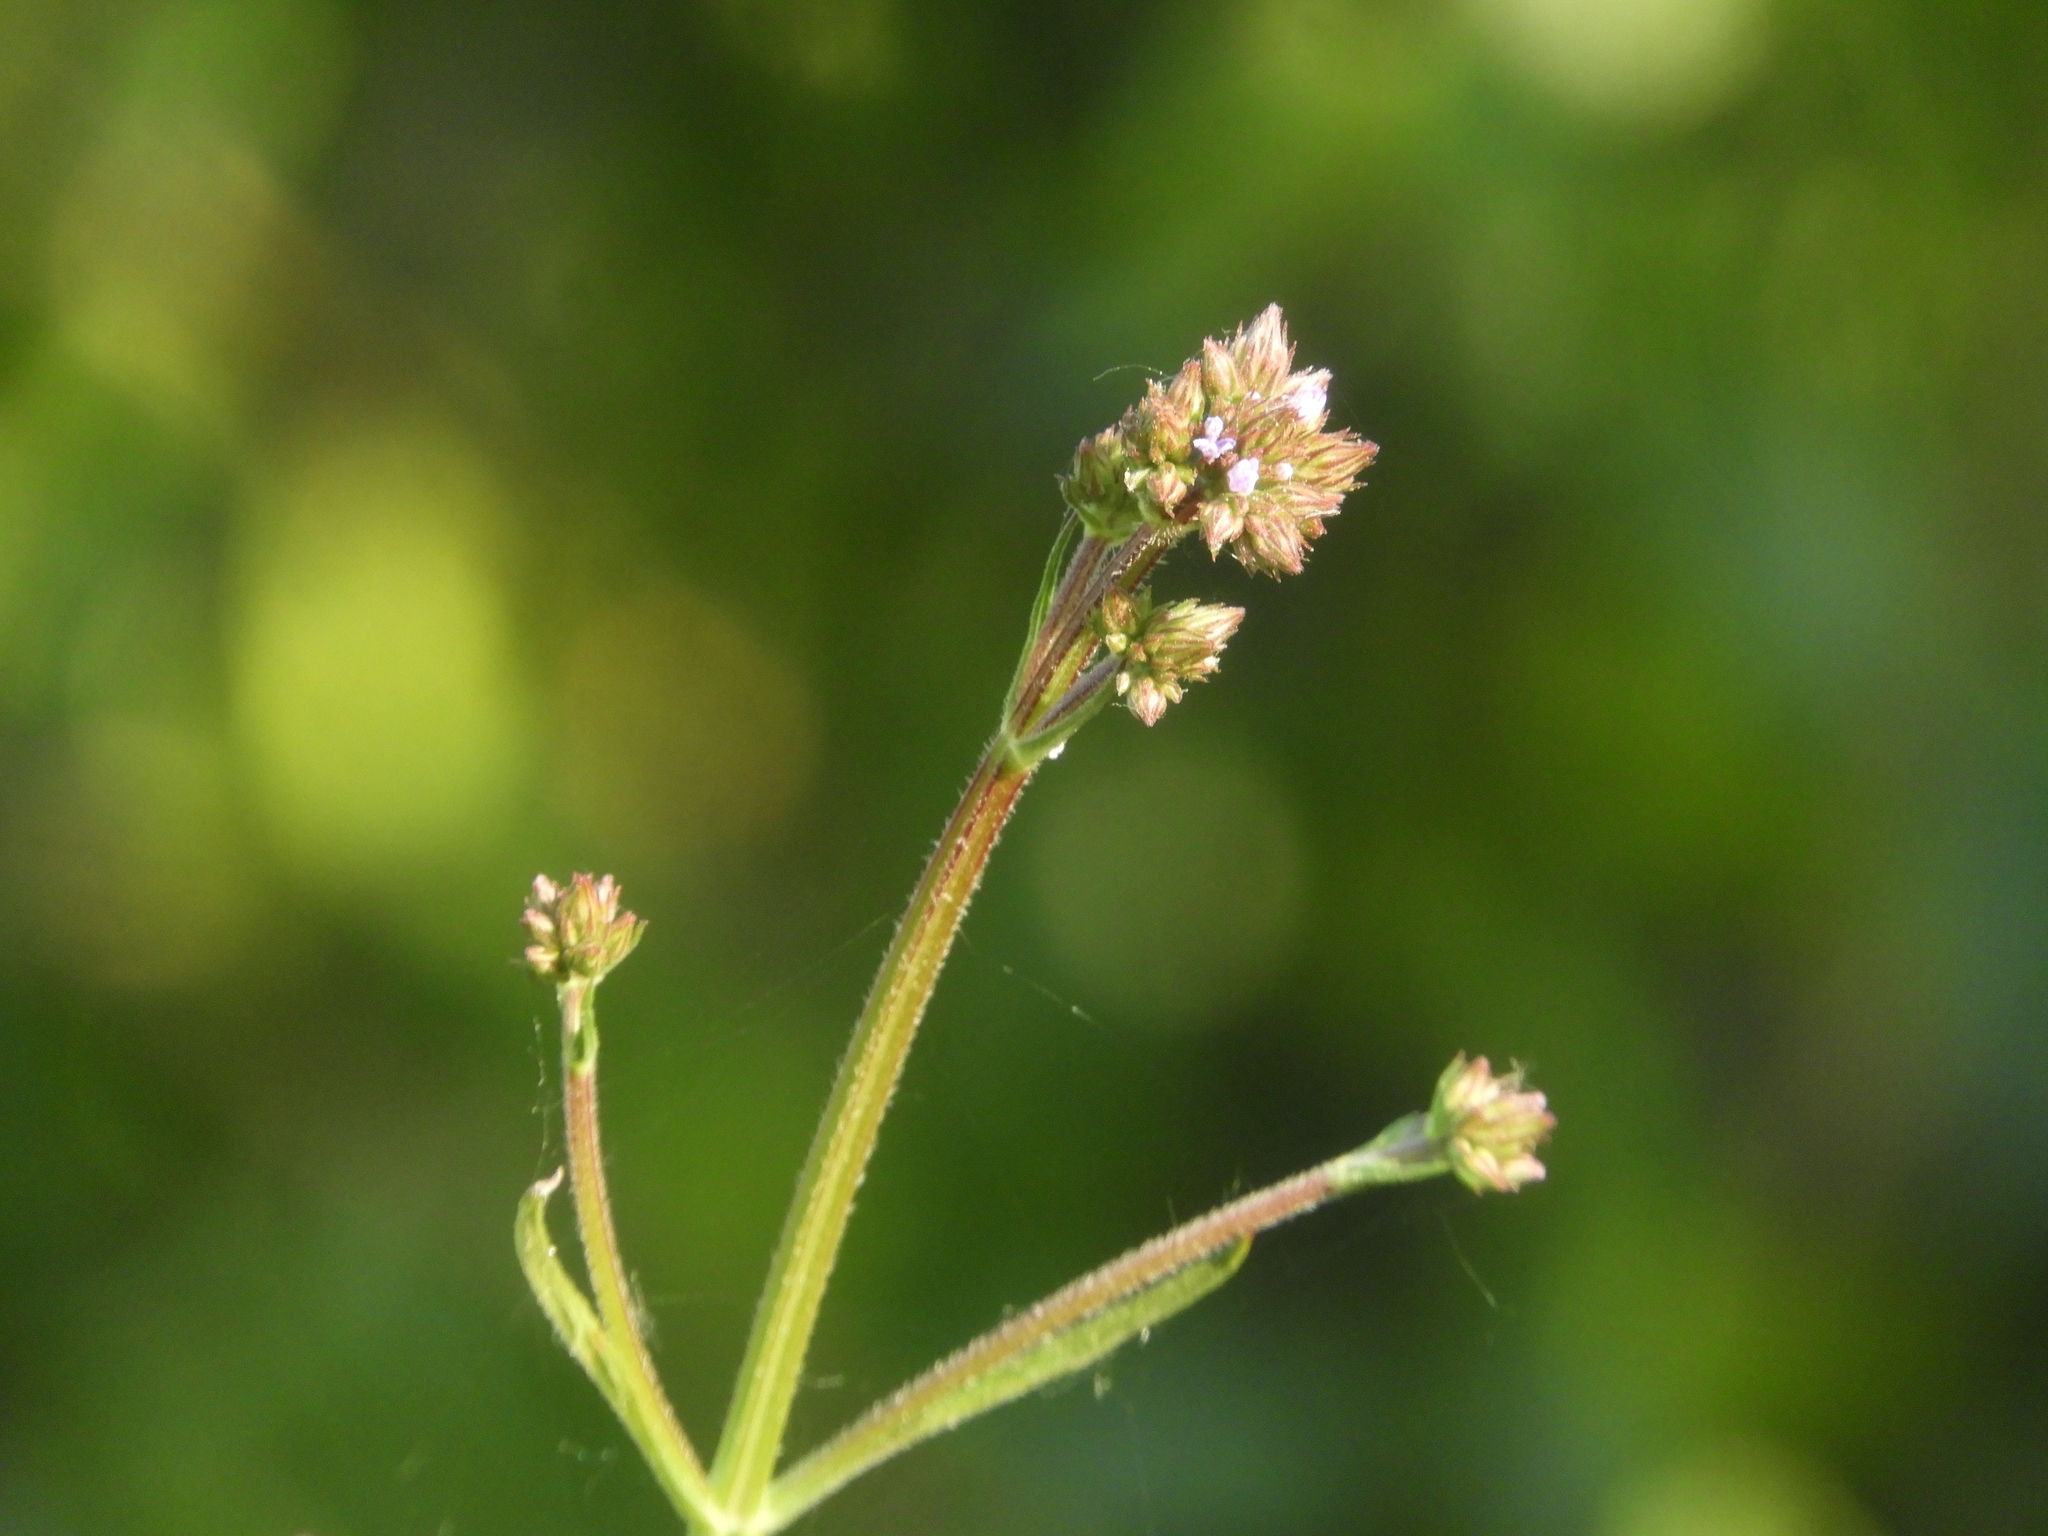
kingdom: Plantae
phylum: Tracheophyta
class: Magnoliopsida
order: Lamiales
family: Verbenaceae
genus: Verbena
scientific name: Verbena brasiliensis
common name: Brazilian vervain
